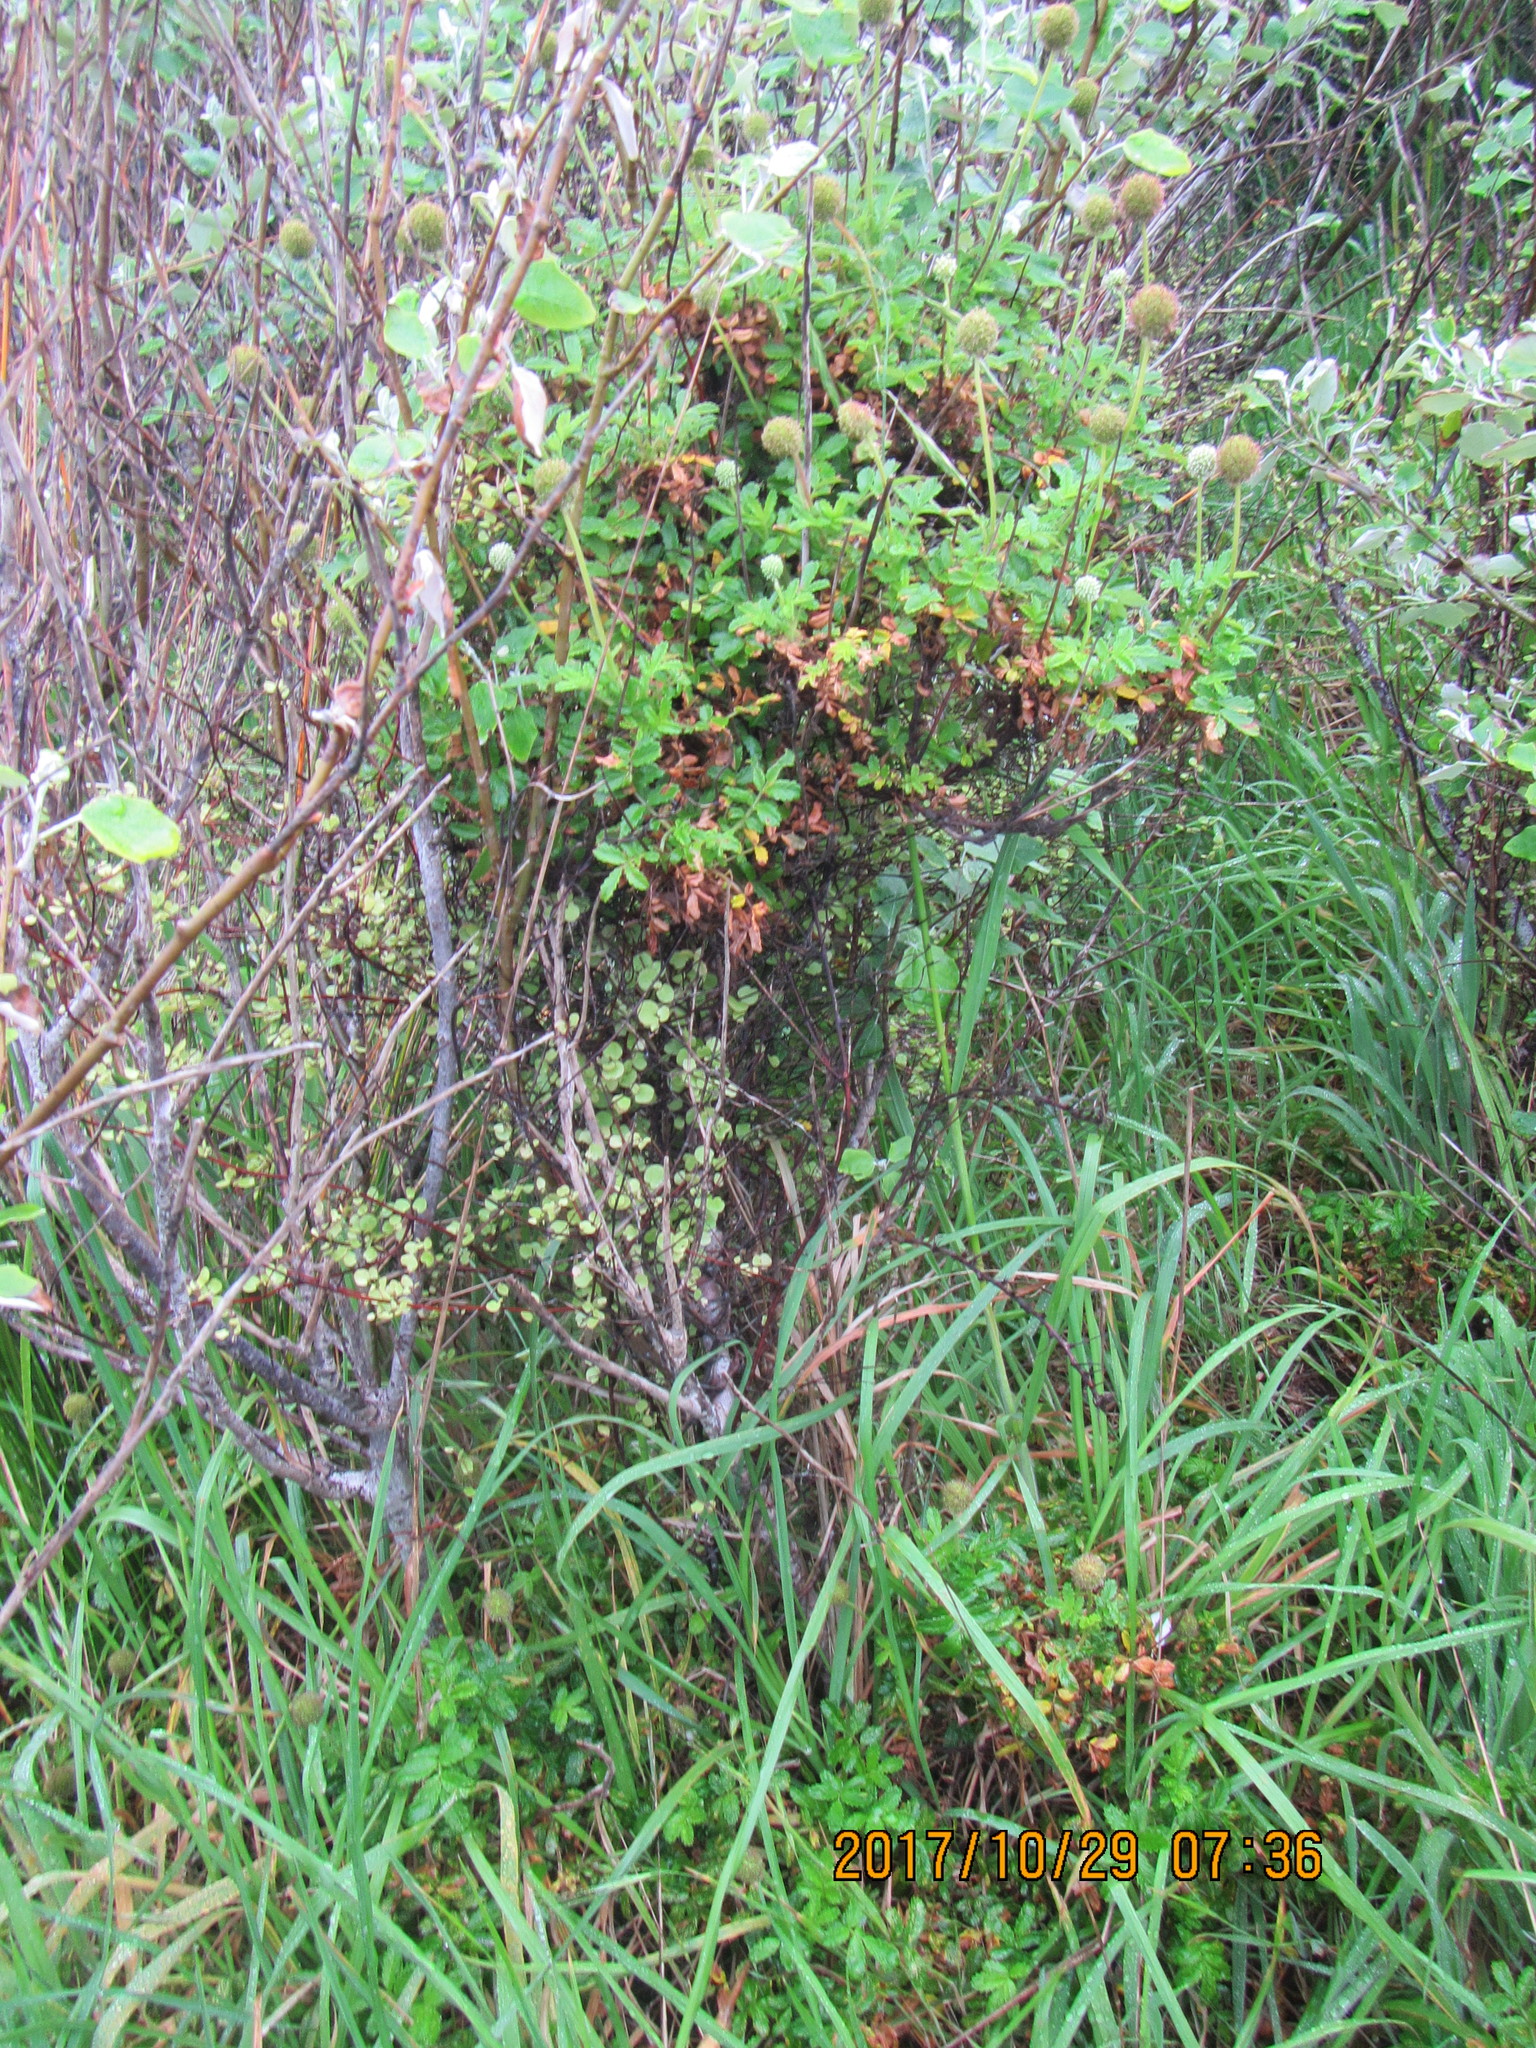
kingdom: Plantae
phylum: Tracheophyta
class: Magnoliopsida
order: Rosales
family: Rosaceae
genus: Acaena
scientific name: Acaena novae-zelandiae
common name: Pirri-pirri-bur
